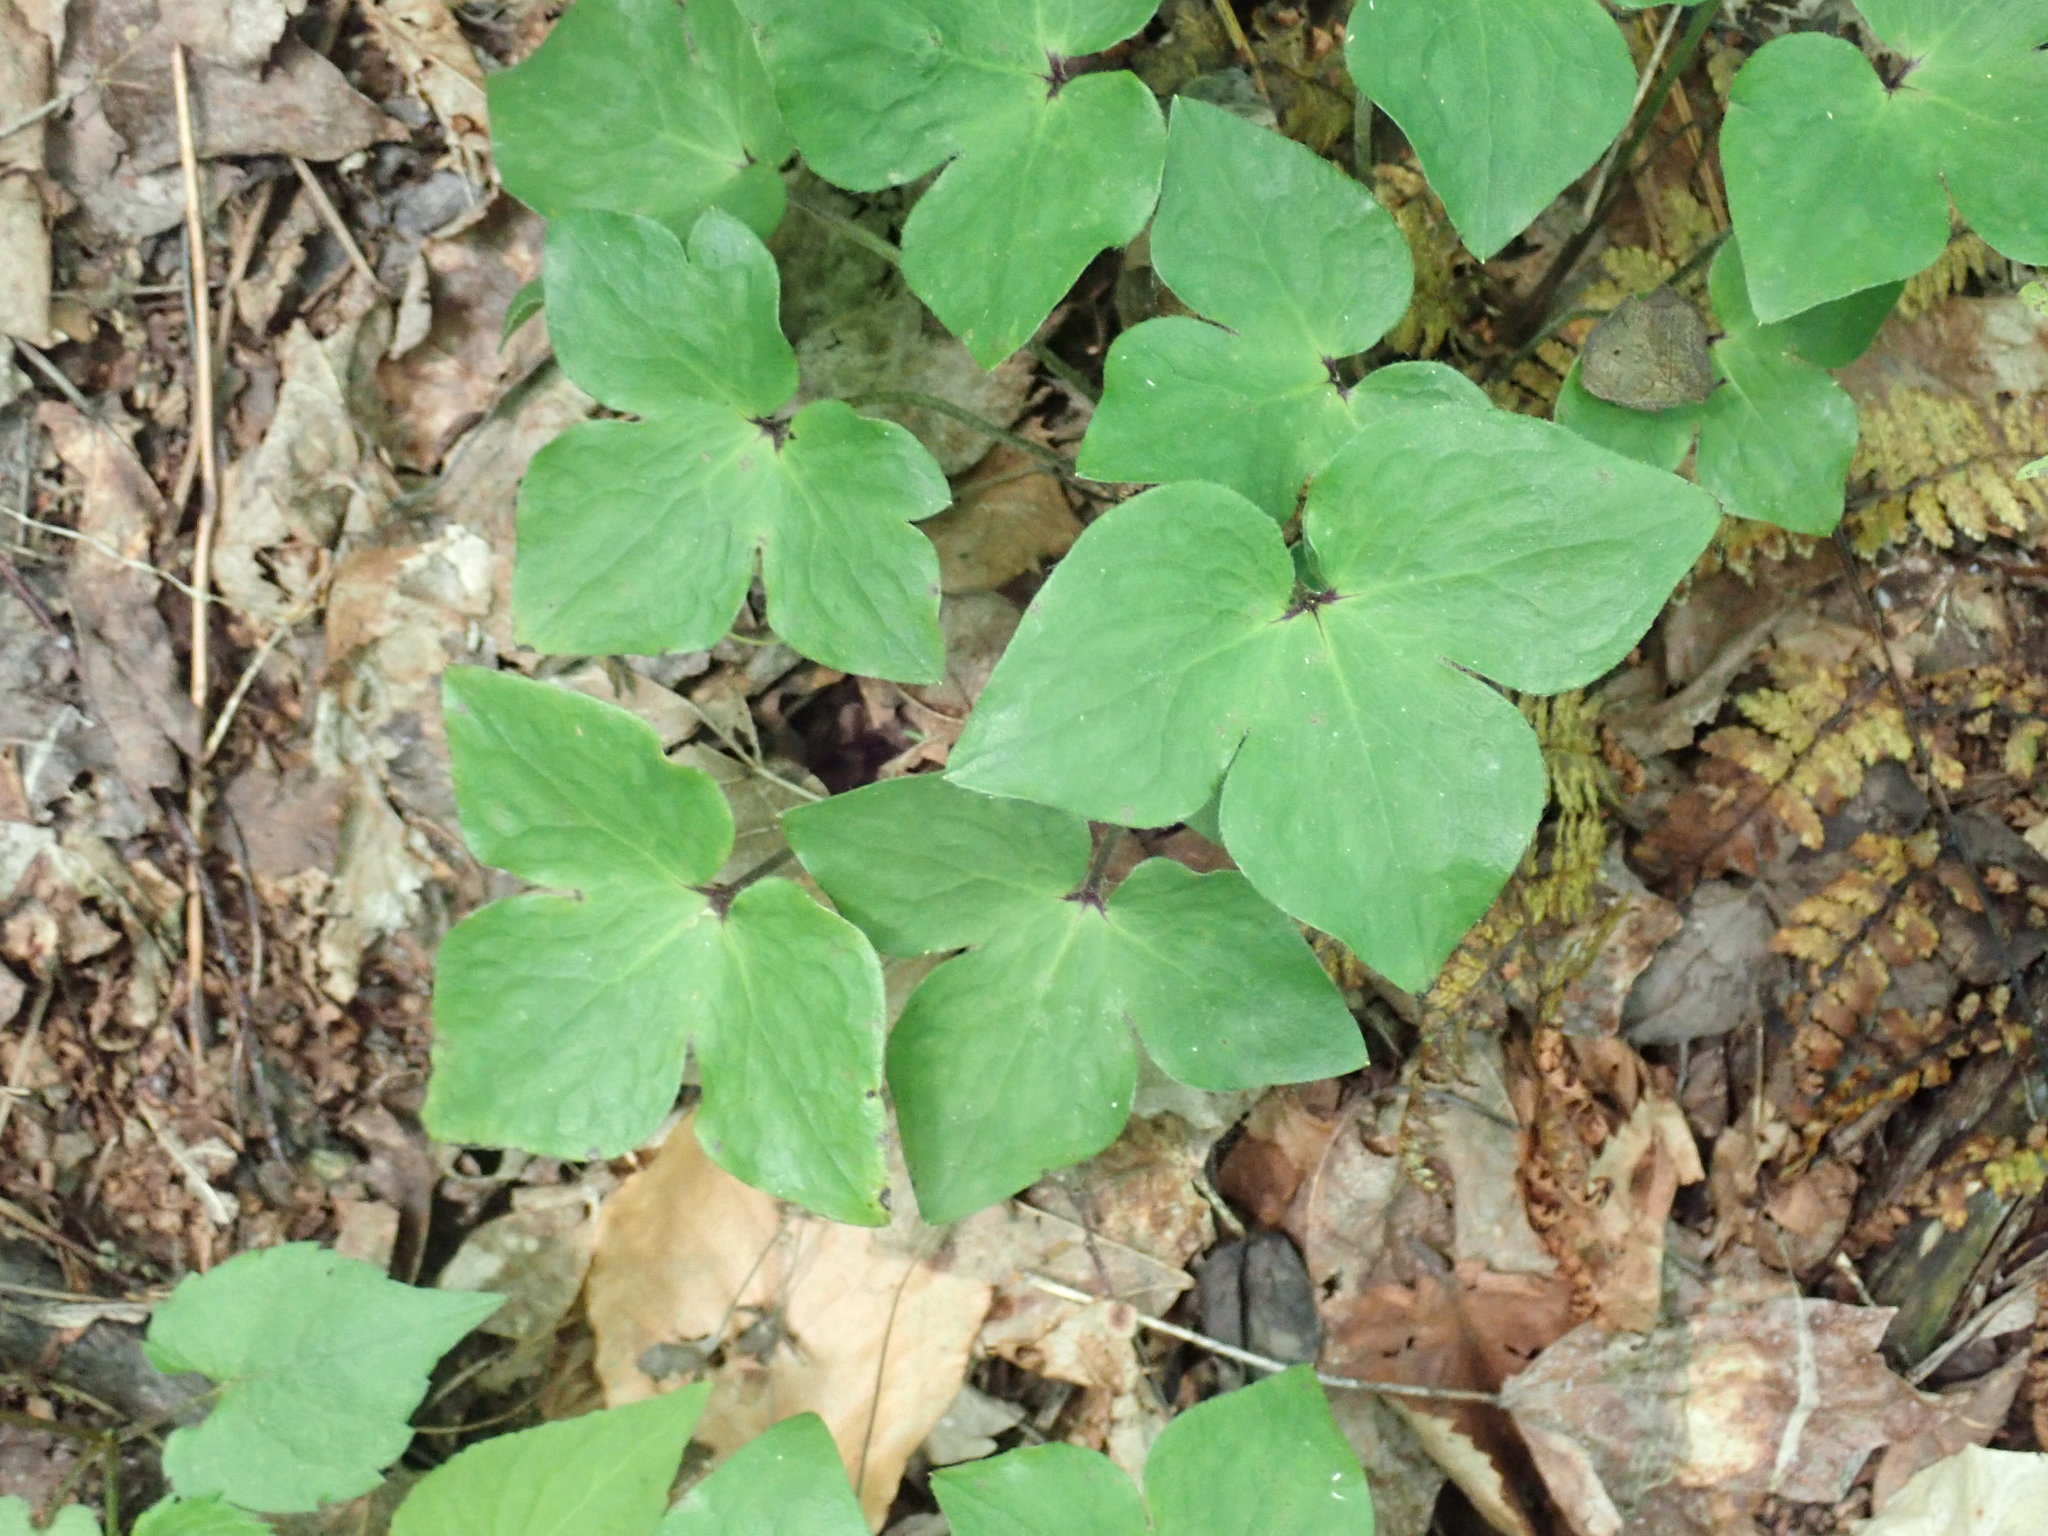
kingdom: Plantae
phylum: Tracheophyta
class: Magnoliopsida
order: Ranunculales
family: Ranunculaceae
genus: Hepatica
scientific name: Hepatica acutiloba
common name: Sharp-lobed hepatica
